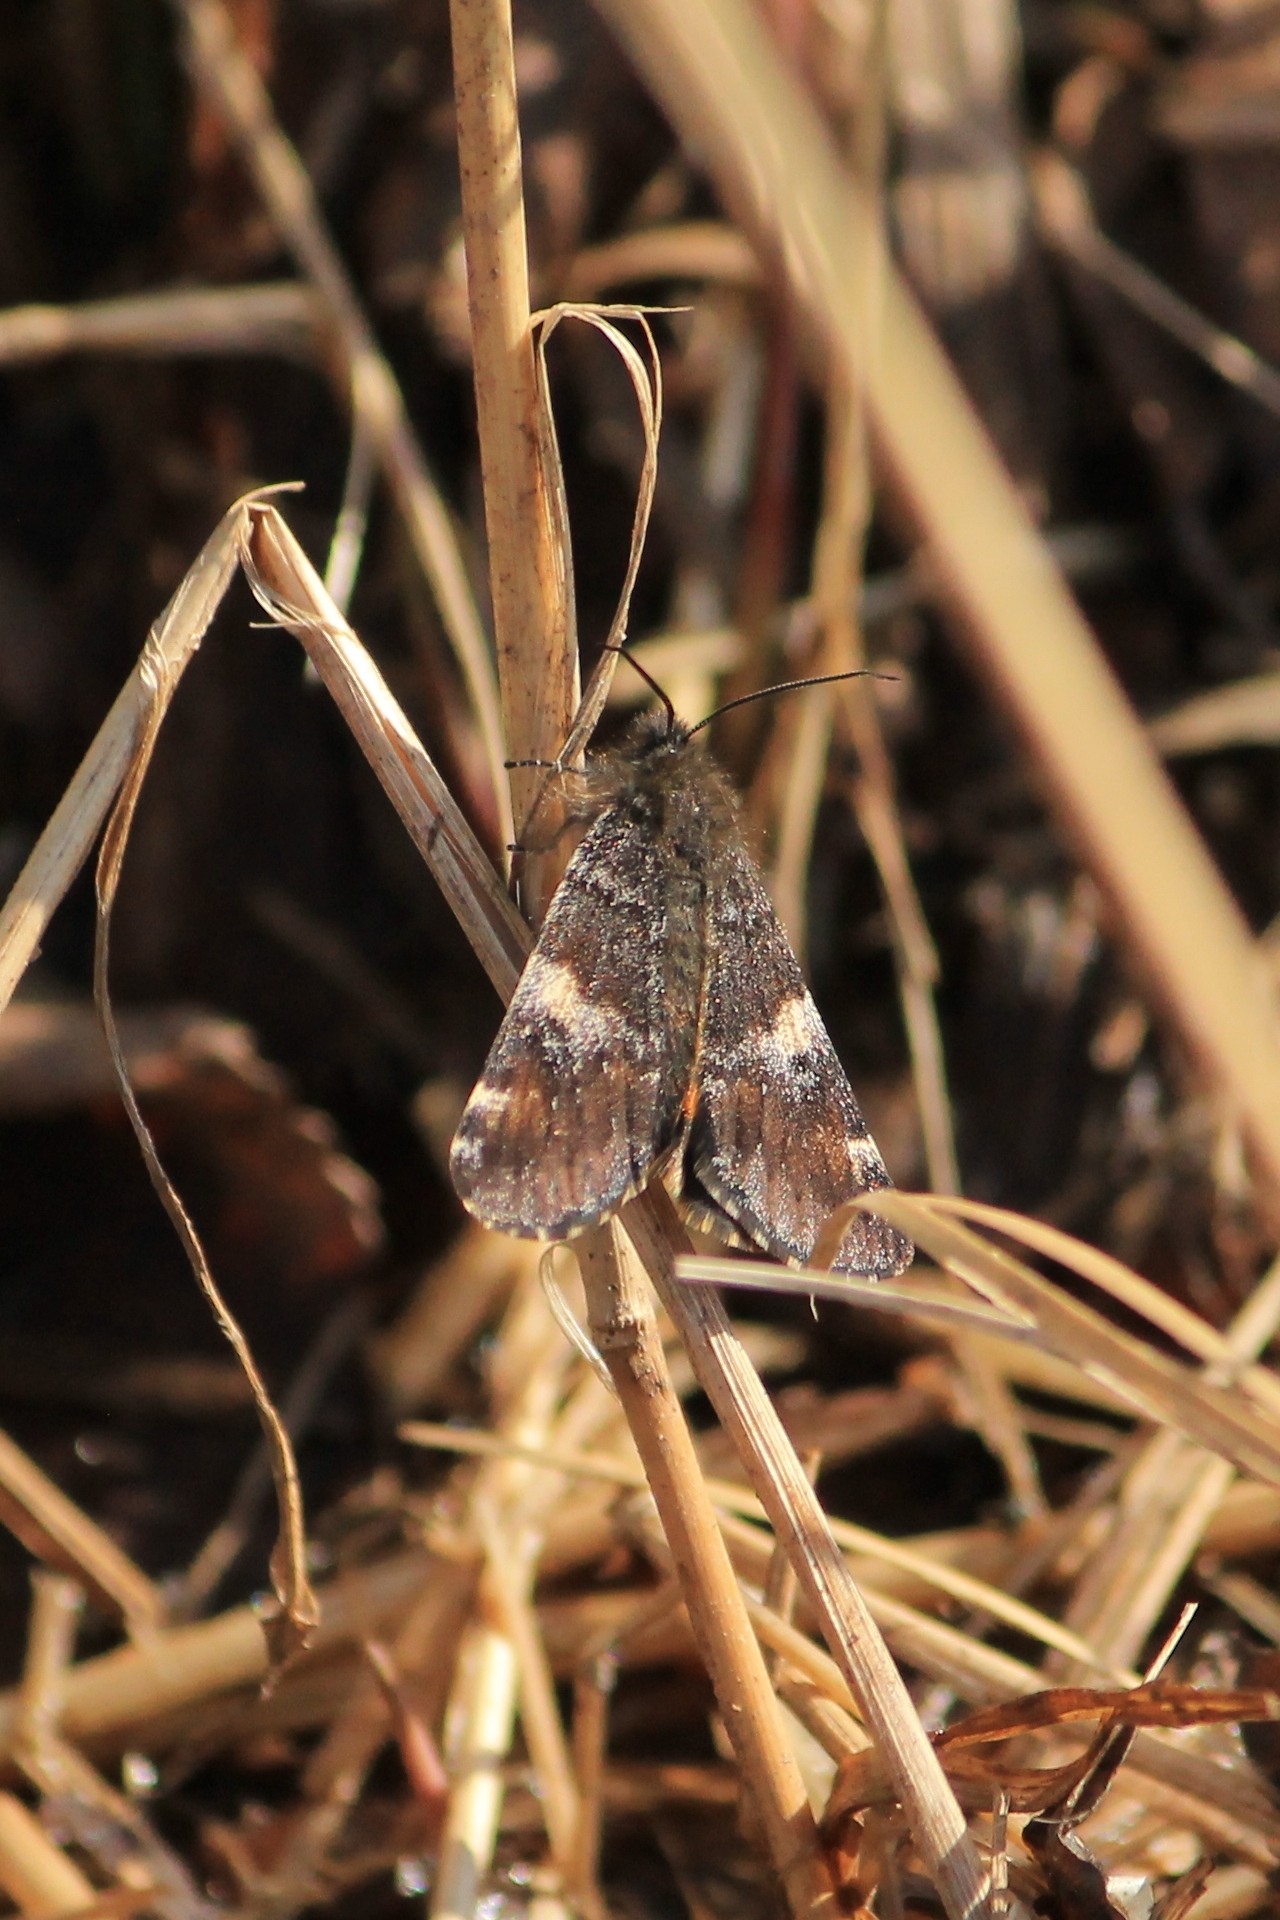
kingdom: Animalia
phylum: Arthropoda
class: Insecta
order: Lepidoptera
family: Geometridae
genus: Archiearis
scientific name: Archiearis parthenias
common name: Orange underwing
